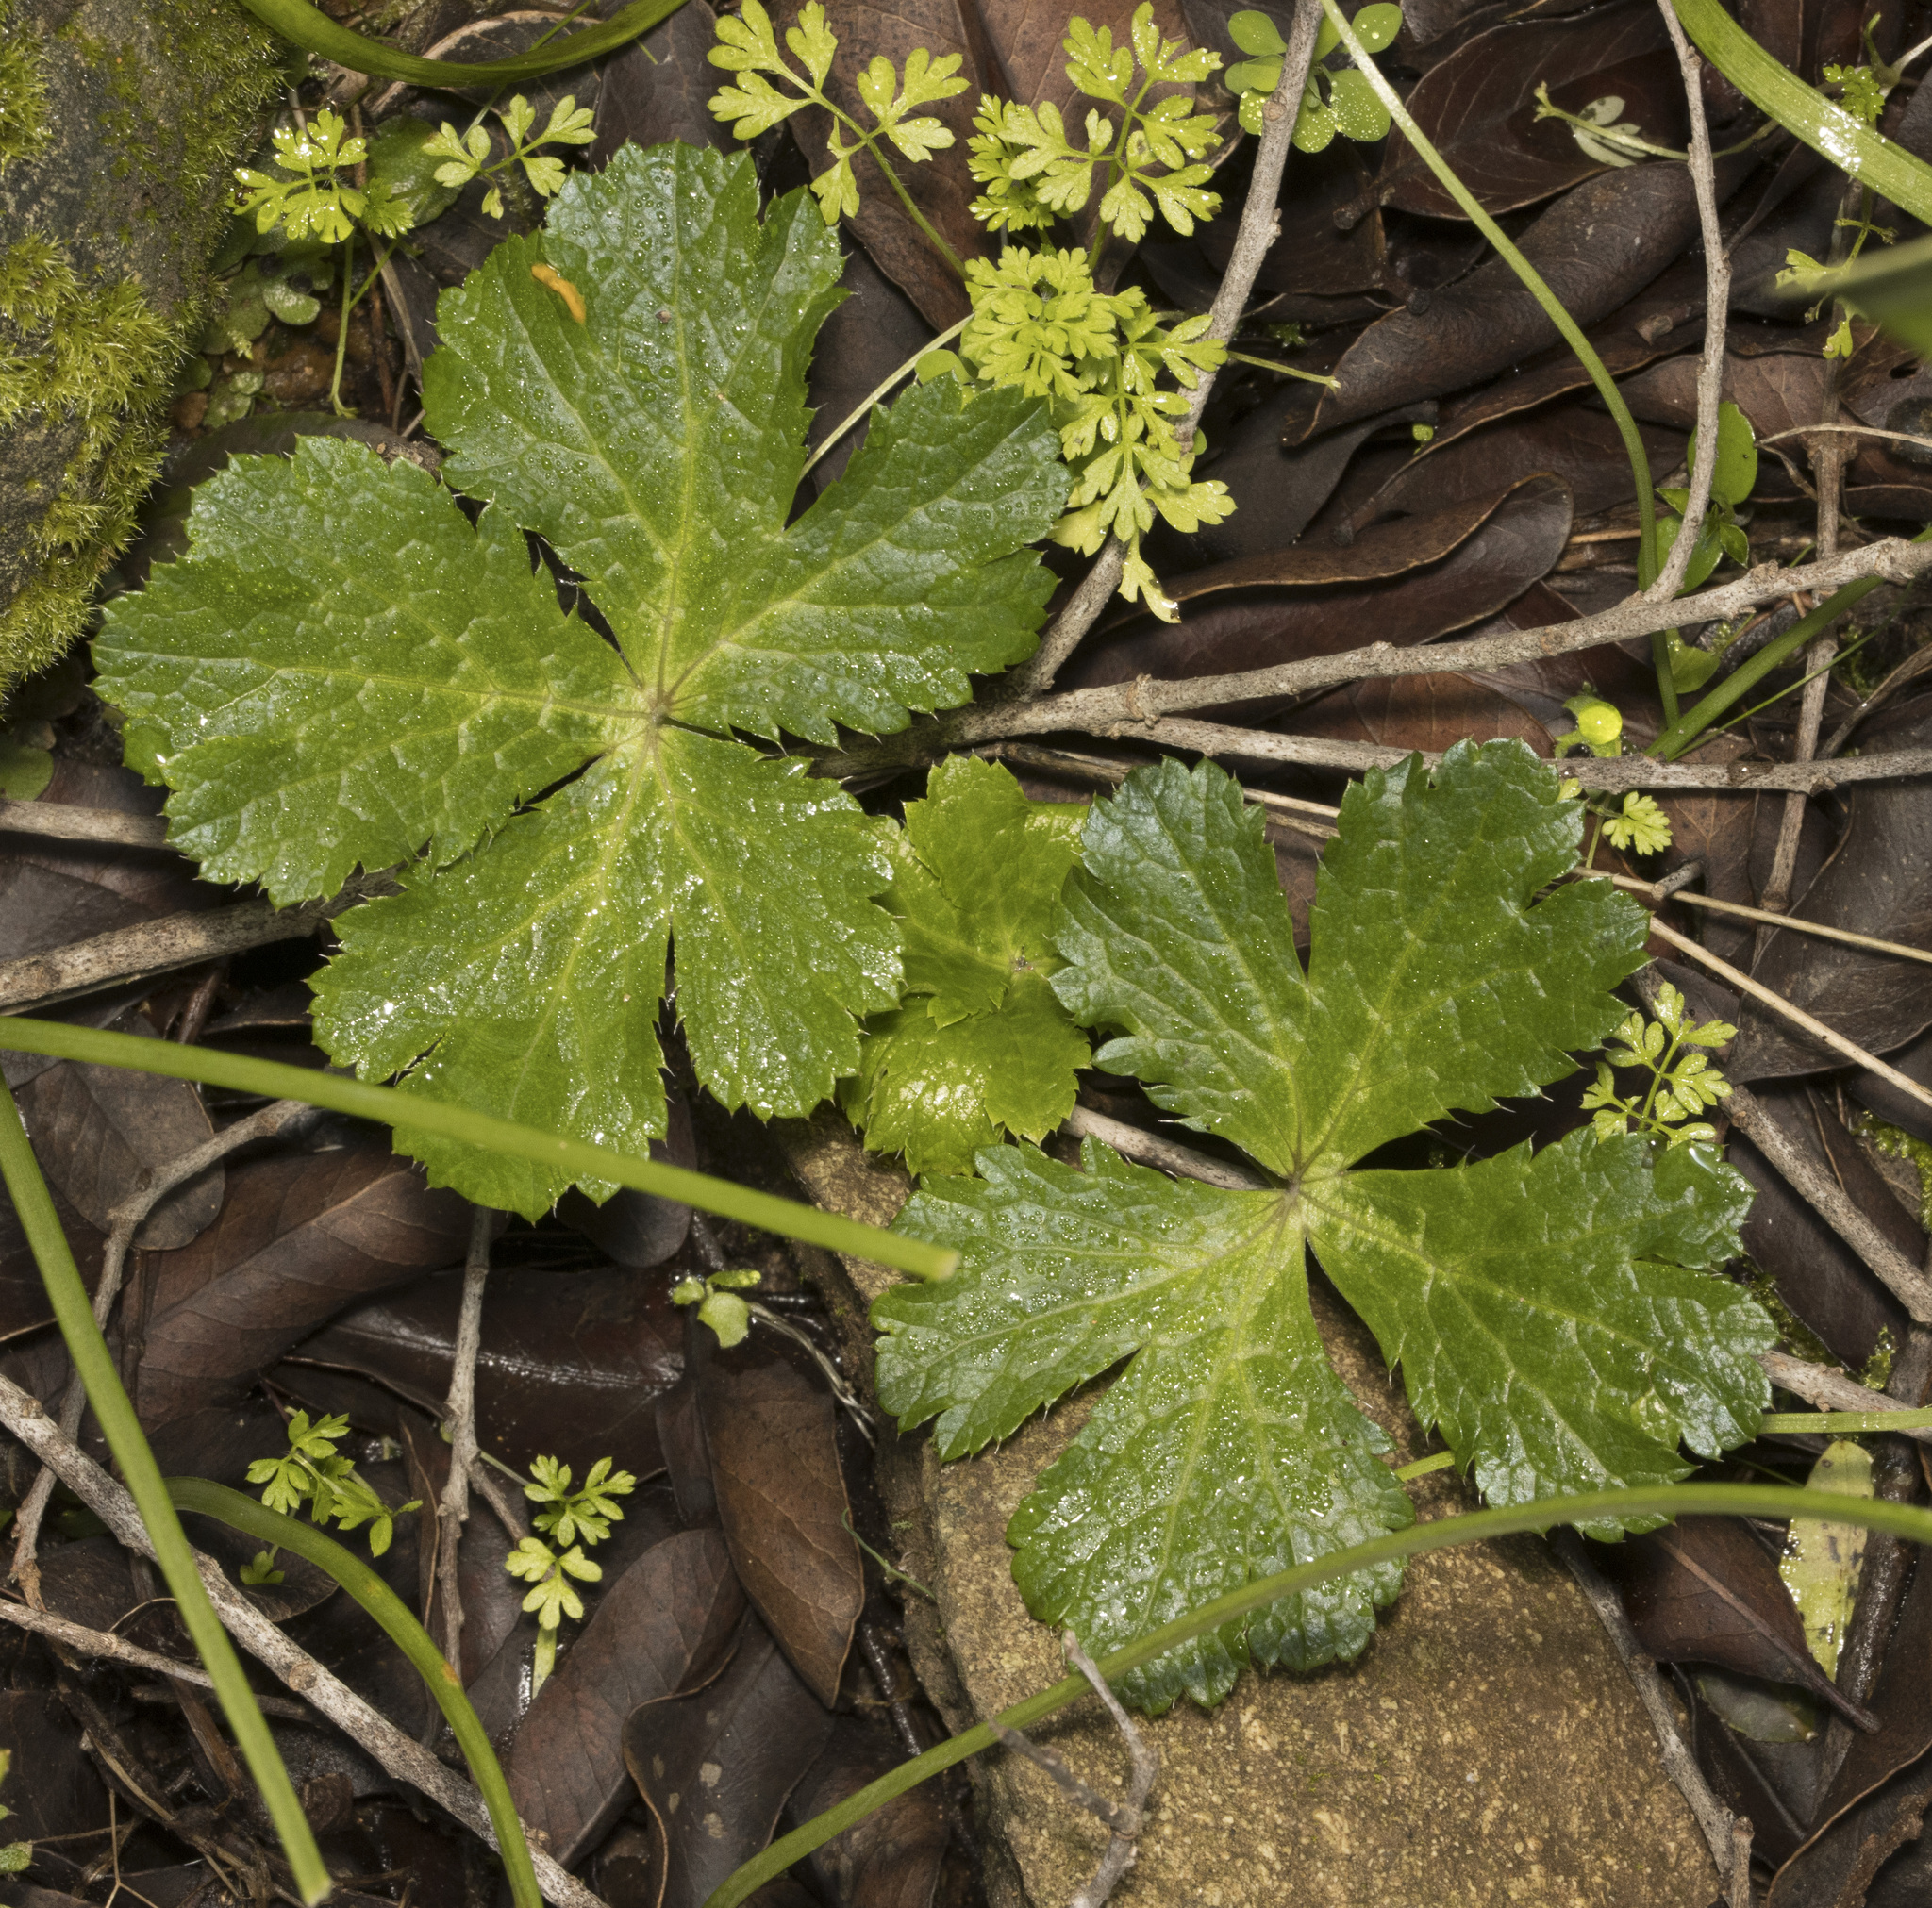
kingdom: Plantae
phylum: Tracheophyta
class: Magnoliopsida
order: Apiales
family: Apiaceae
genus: Sanicula
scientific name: Sanicula crassicaulis
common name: Western snakeroot
